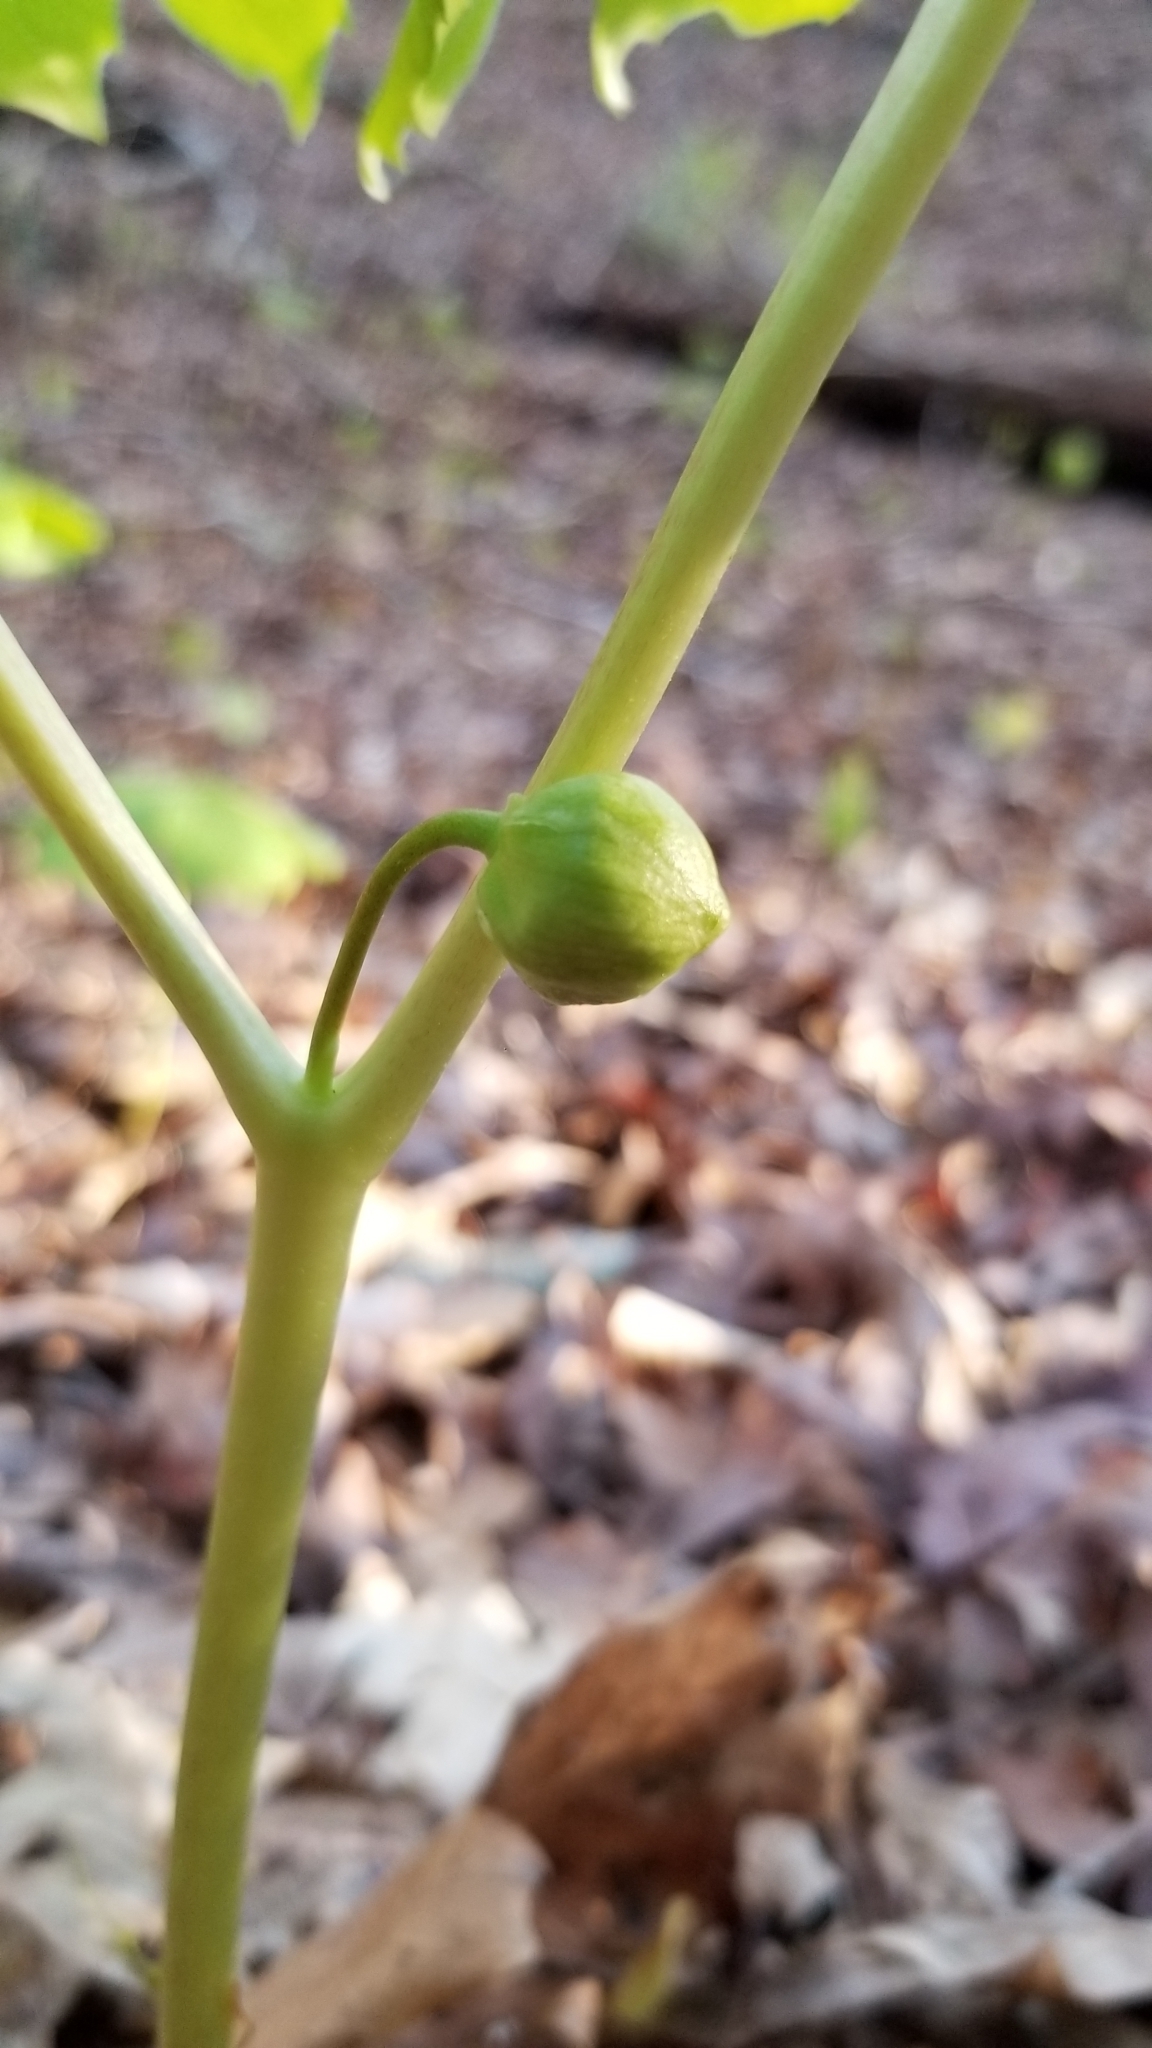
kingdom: Plantae
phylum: Tracheophyta
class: Magnoliopsida
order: Ranunculales
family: Berberidaceae
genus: Podophyllum
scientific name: Podophyllum peltatum
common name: Wild mandrake
